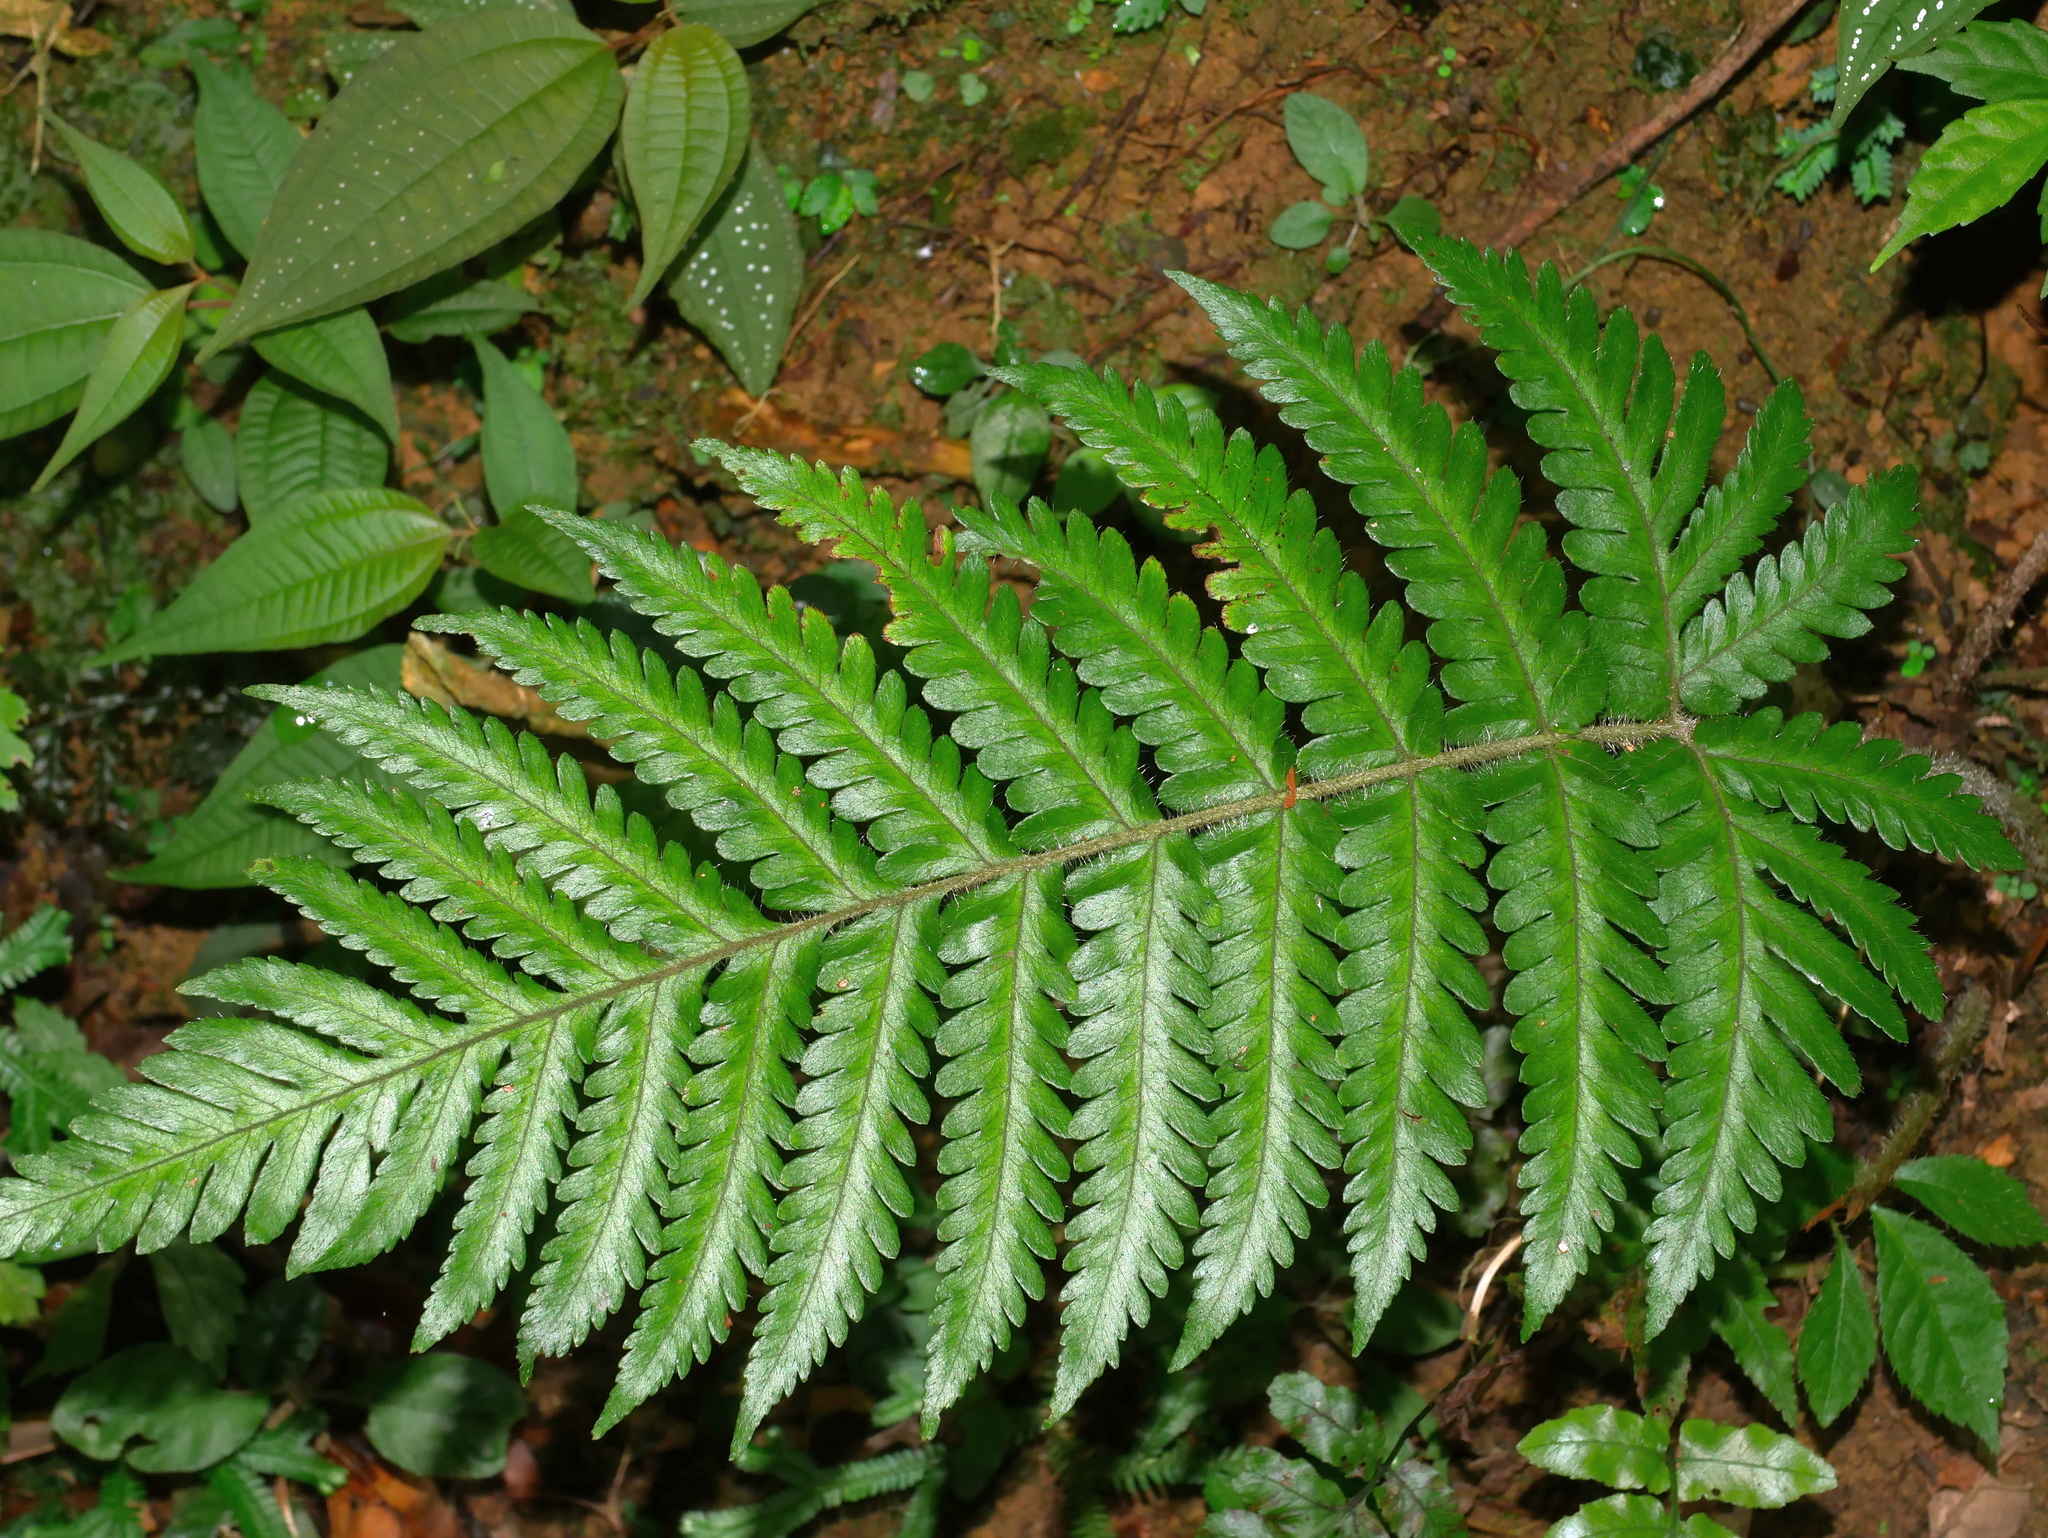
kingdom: Plantae
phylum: Tracheophyta
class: Polypodiopsida
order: Polypodiales
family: Tectariaceae
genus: Tectaria
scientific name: Tectaria kusukusensis
